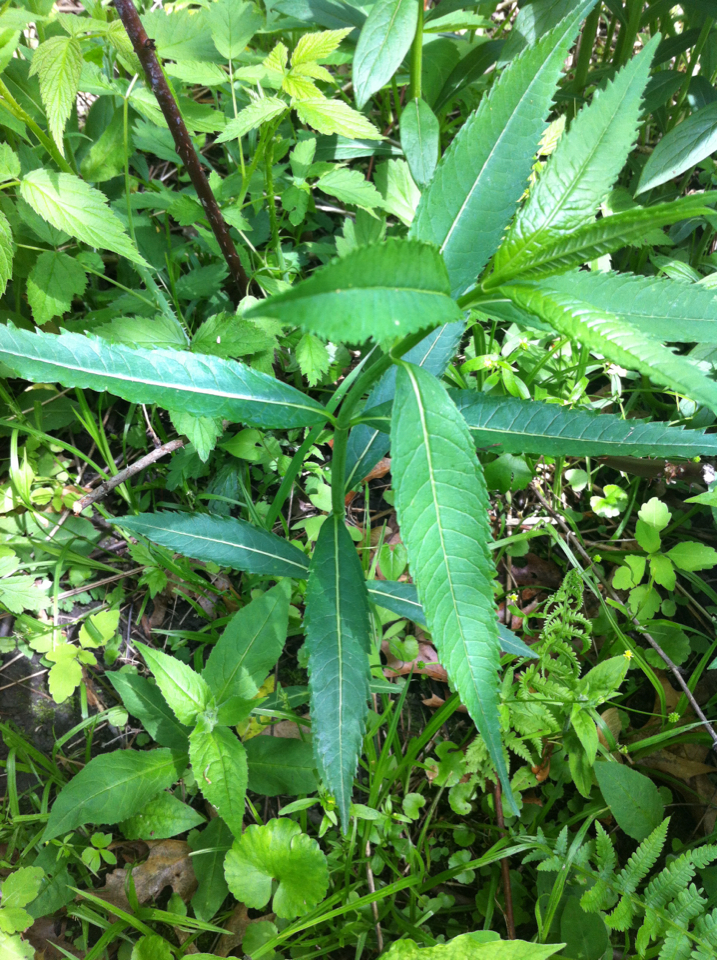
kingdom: Plantae
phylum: Tracheophyta
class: Magnoliopsida
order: Lamiales
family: Plantaginaceae
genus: Chelone
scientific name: Chelone glabra
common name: Snakehead
